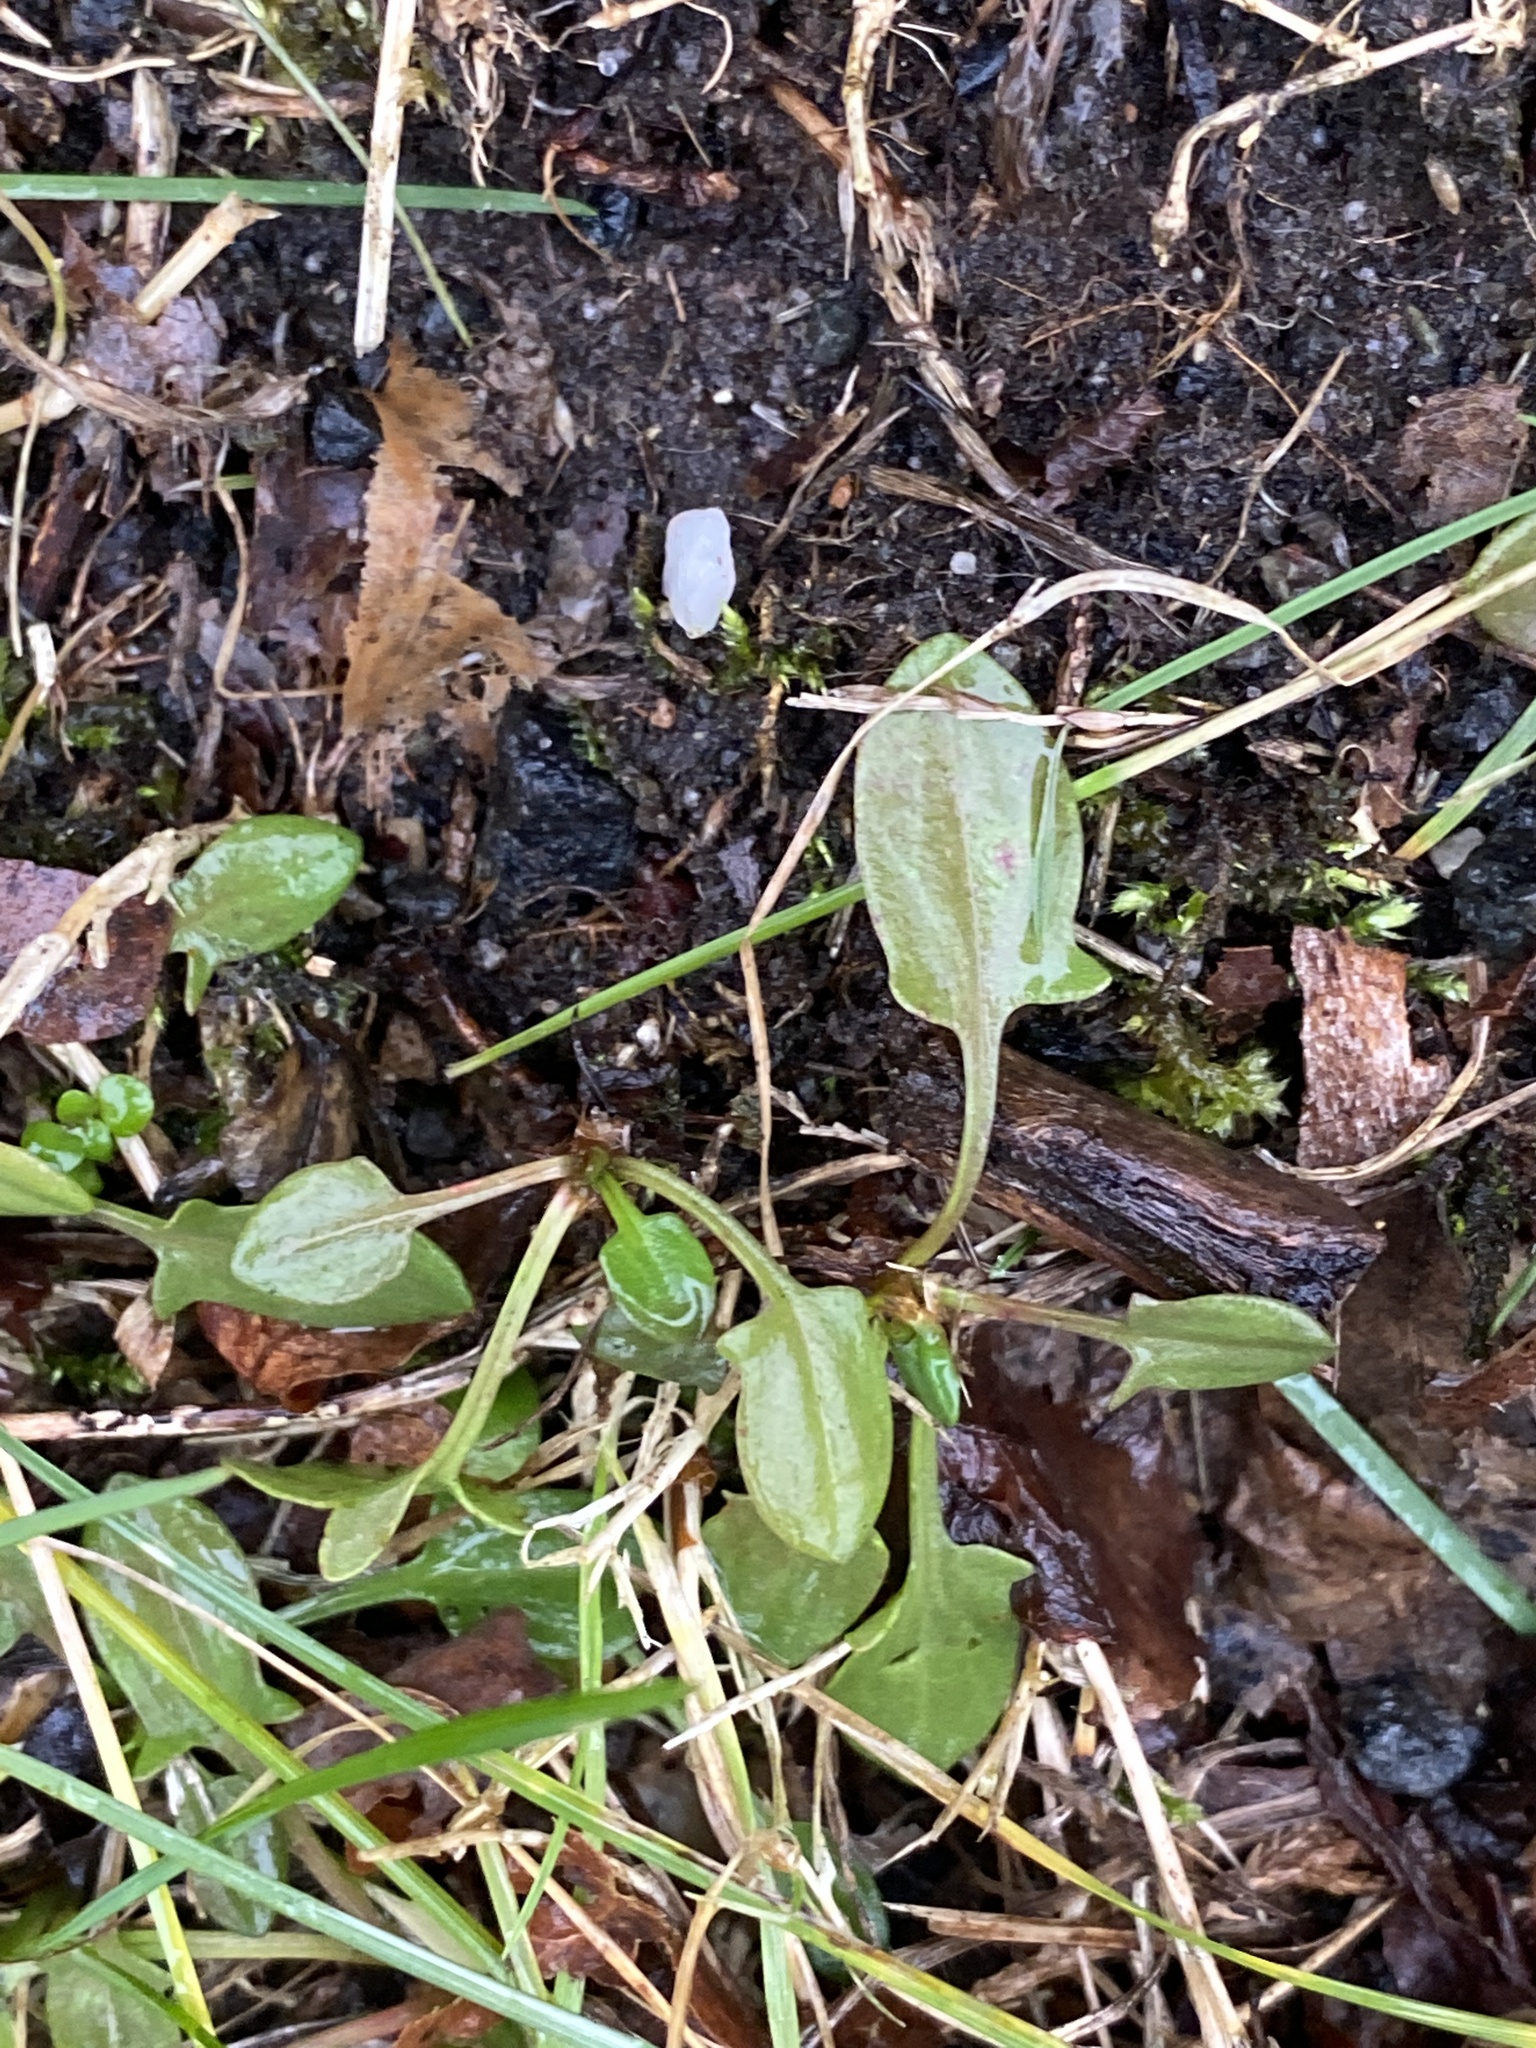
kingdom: Plantae
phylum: Tracheophyta
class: Magnoliopsida
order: Caryophyllales
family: Polygonaceae
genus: Rumex
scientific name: Rumex acetosella
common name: Common sheep sorrel
